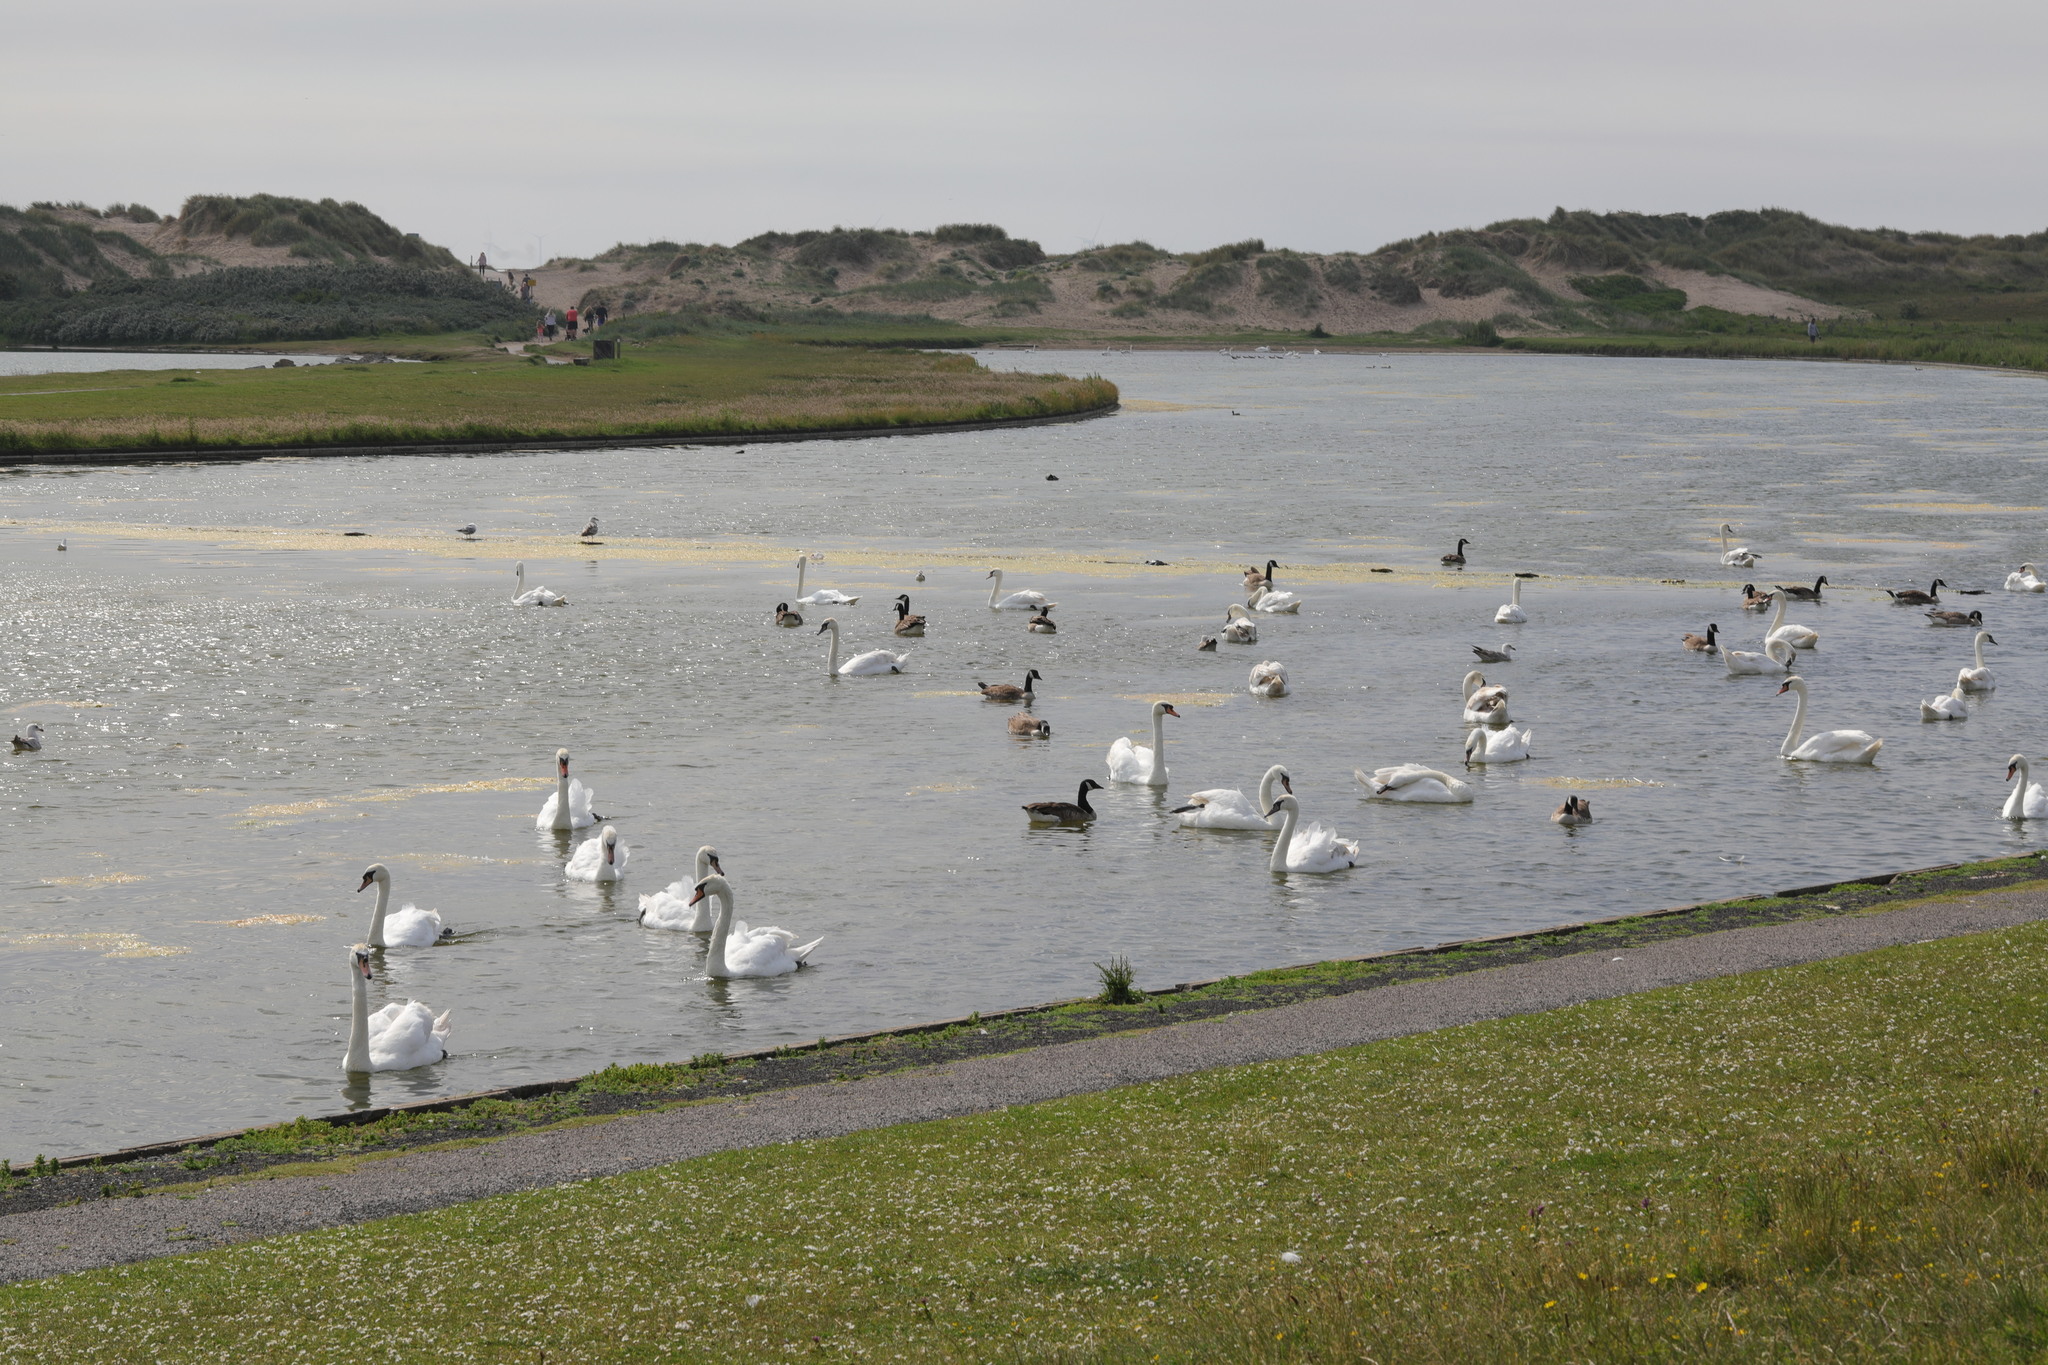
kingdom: Animalia
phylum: Chordata
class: Aves
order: Anseriformes
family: Anatidae
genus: Cygnus
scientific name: Cygnus olor
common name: Mute swan
